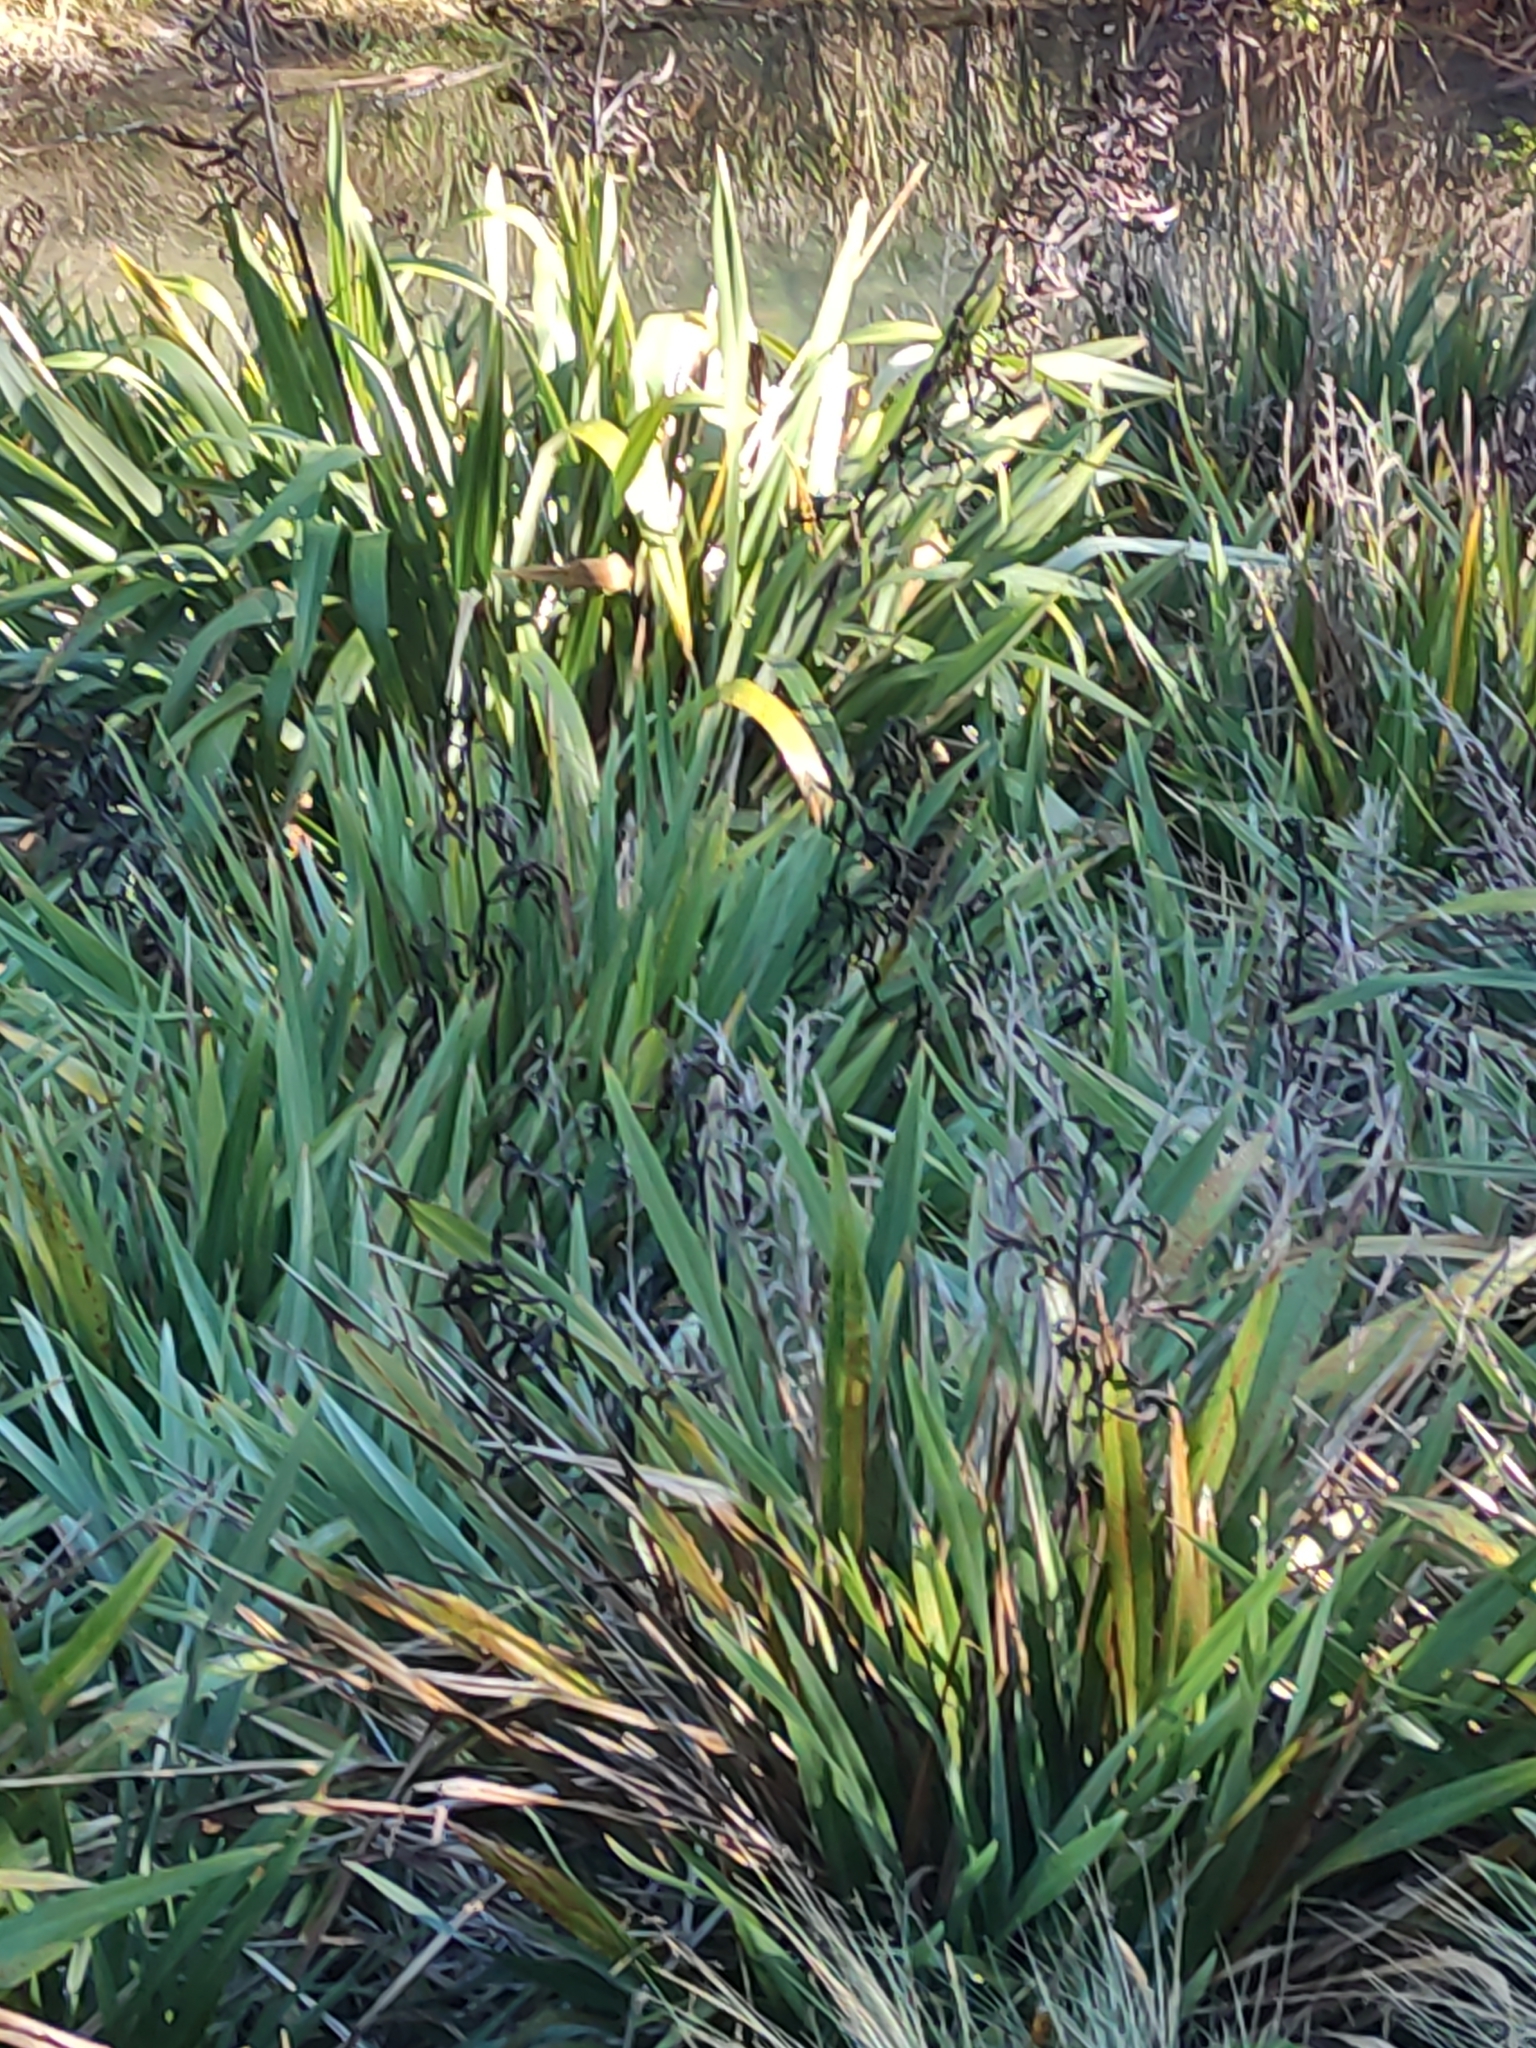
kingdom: Plantae
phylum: Tracheophyta
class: Liliopsida
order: Asparagales
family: Asphodelaceae
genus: Phormium
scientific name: Phormium tenax
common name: New zealand flax
